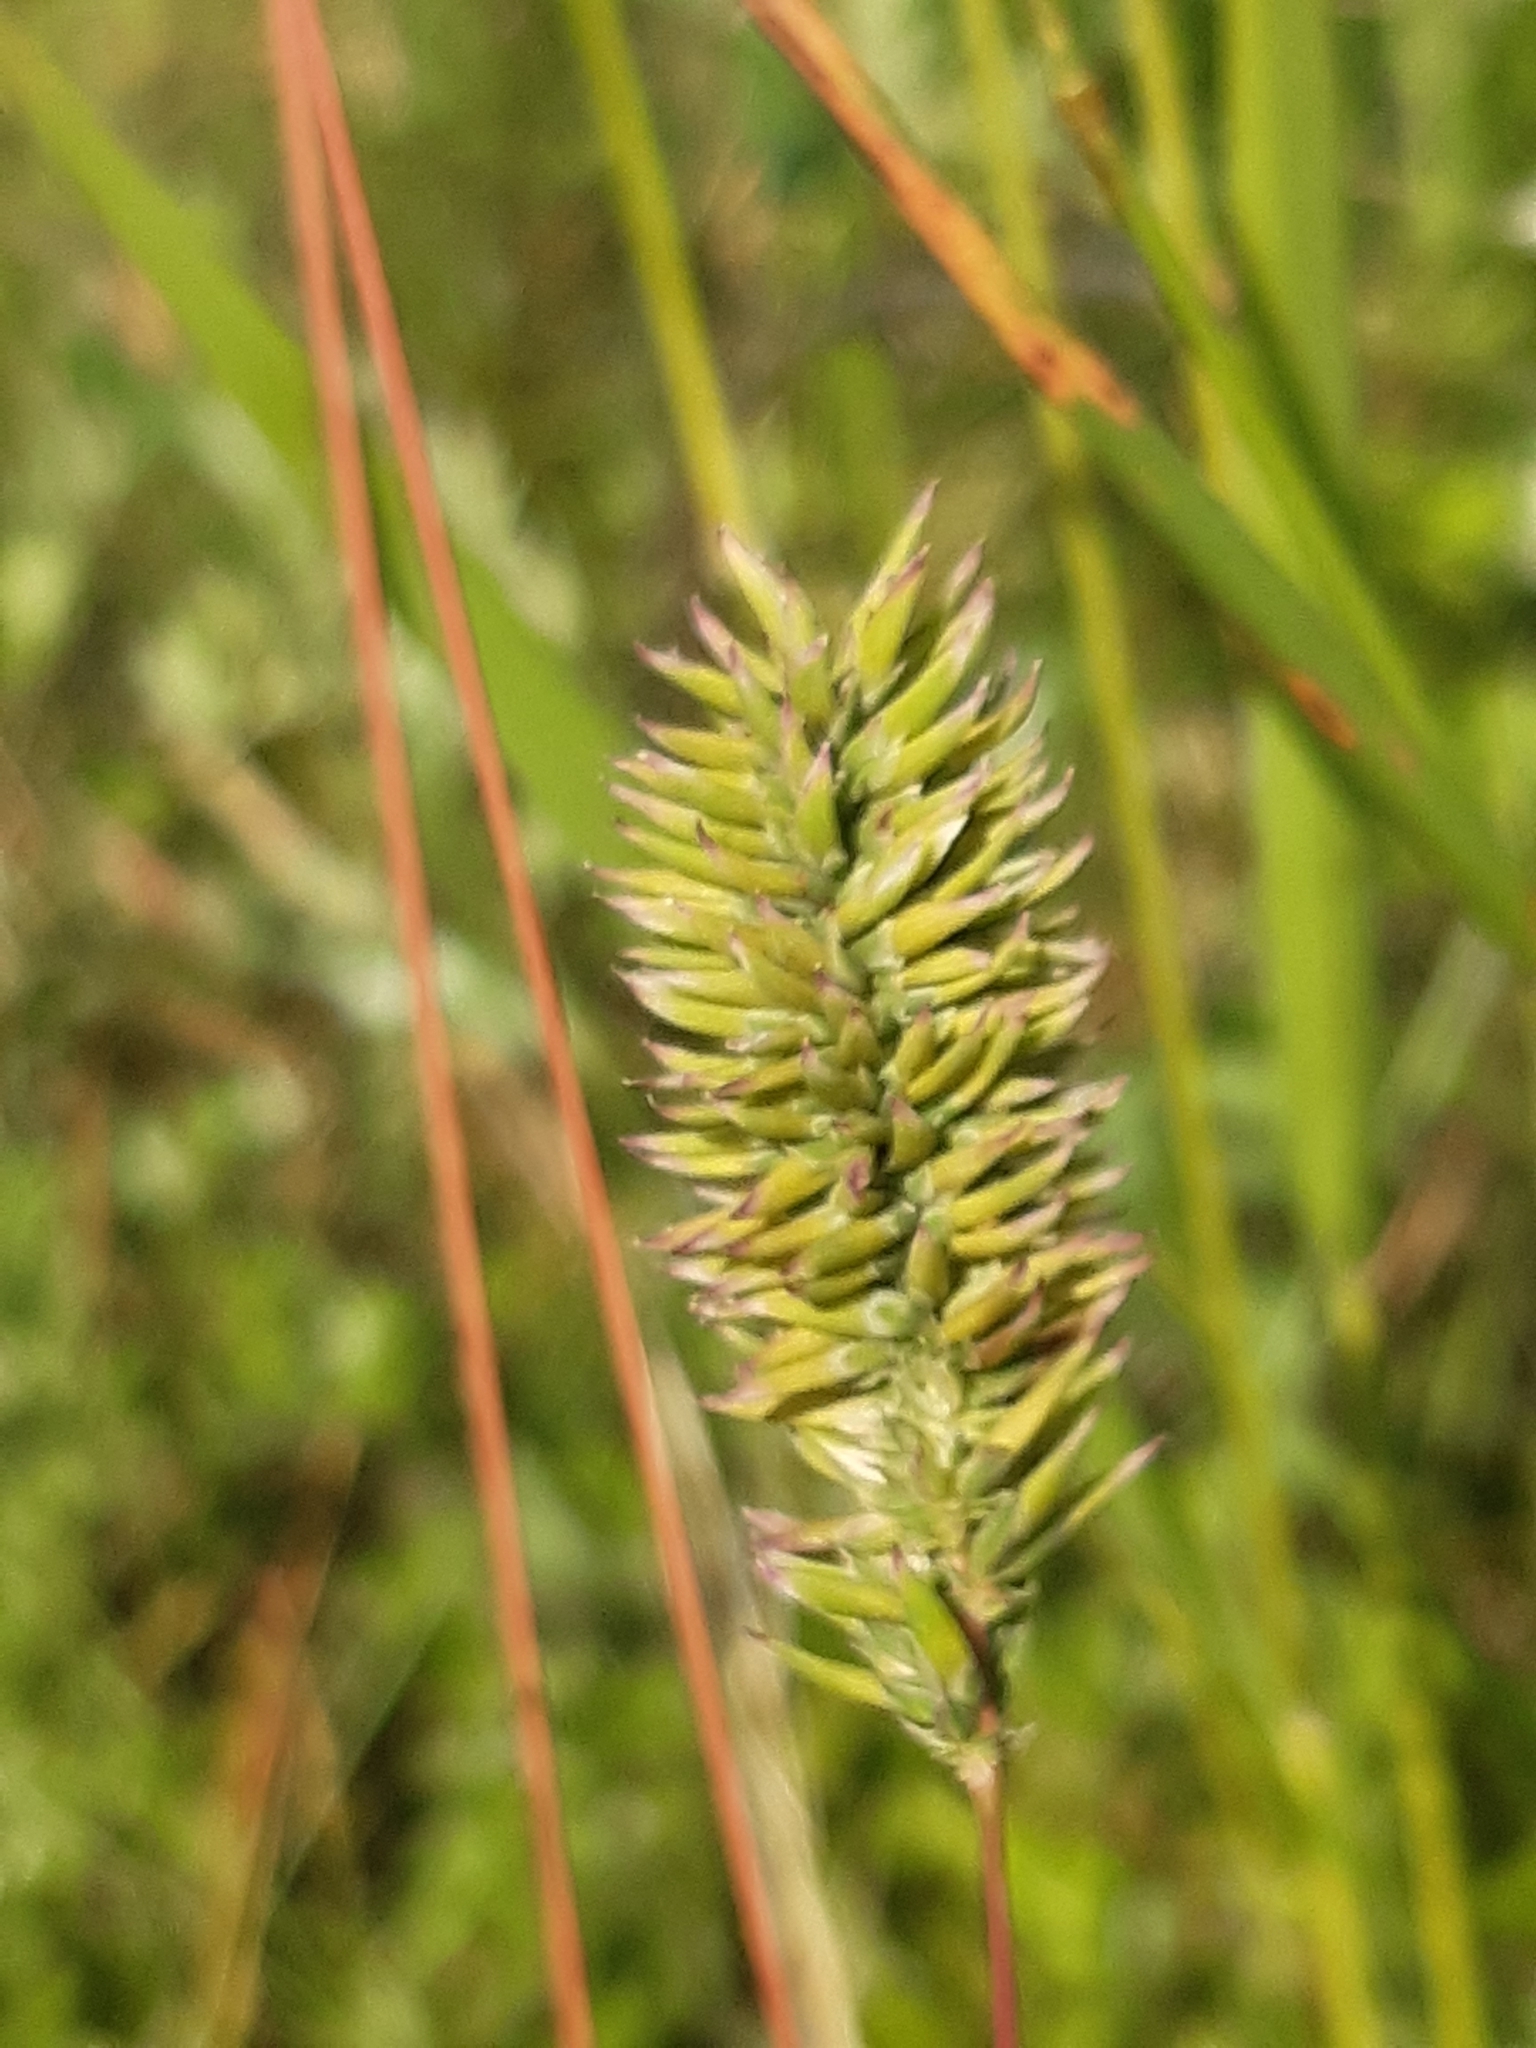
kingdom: Animalia
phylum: Nematoda
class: Chromadorea
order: Rhabditida
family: Anguinidae
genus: Anguina
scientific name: Anguina agrostis
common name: Bent-grass nematode
